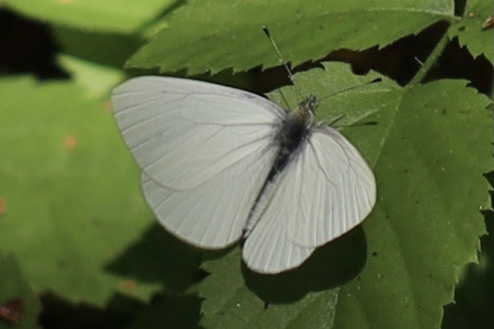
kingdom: Animalia
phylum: Arthropoda
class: Insecta
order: Lepidoptera
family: Pieridae
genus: Pieris
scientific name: Pieris marginalis
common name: Margined white
